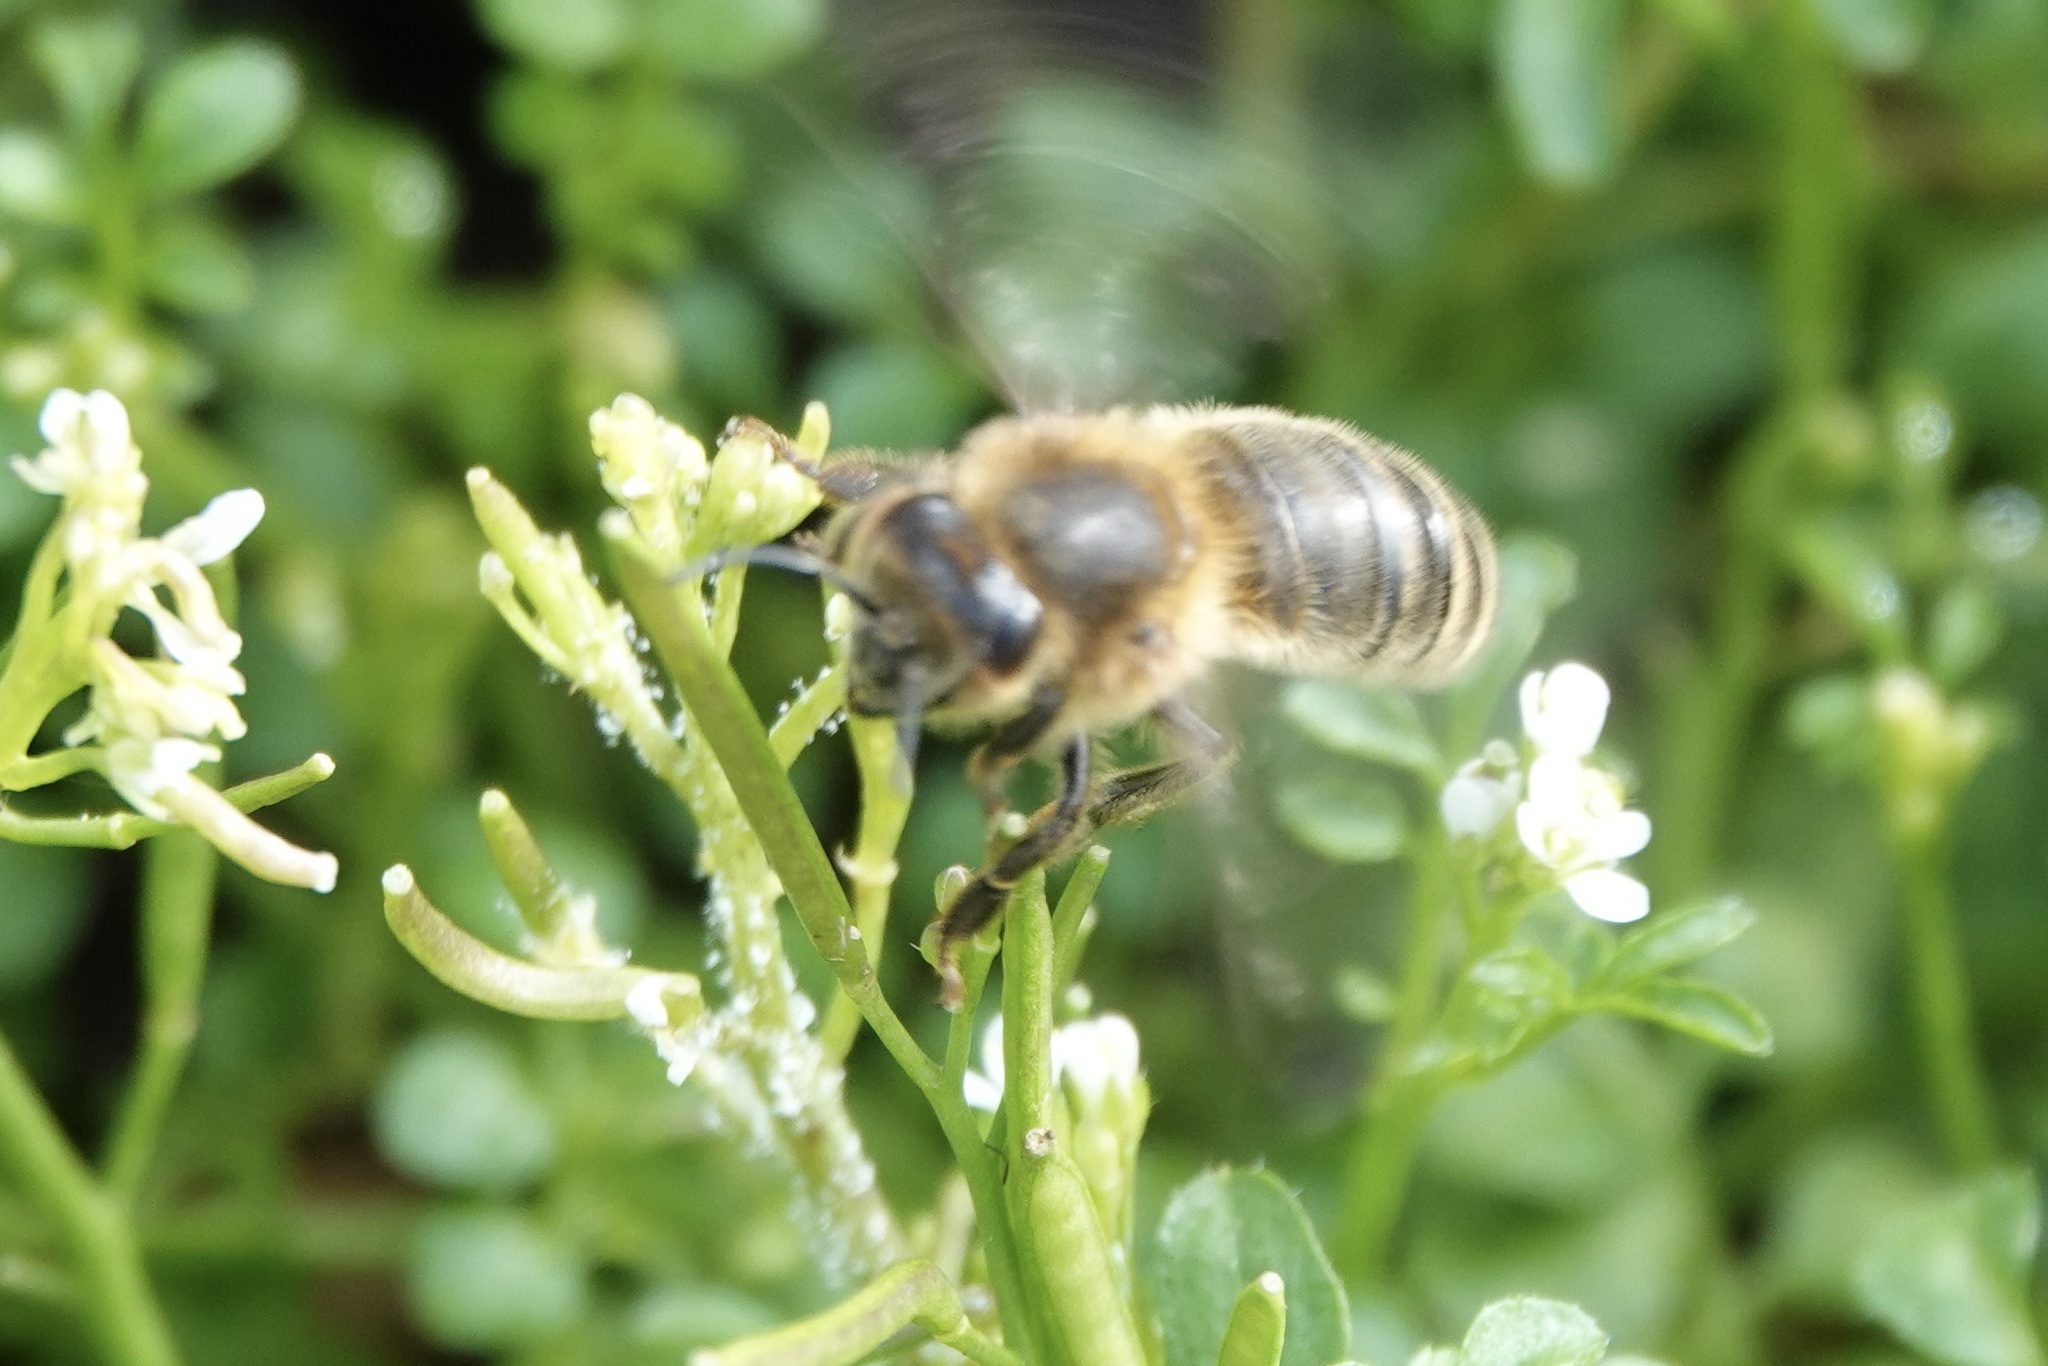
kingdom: Animalia
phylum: Arthropoda
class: Insecta
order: Hymenoptera
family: Apidae
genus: Apis
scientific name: Apis mellifera
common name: Honey bee
